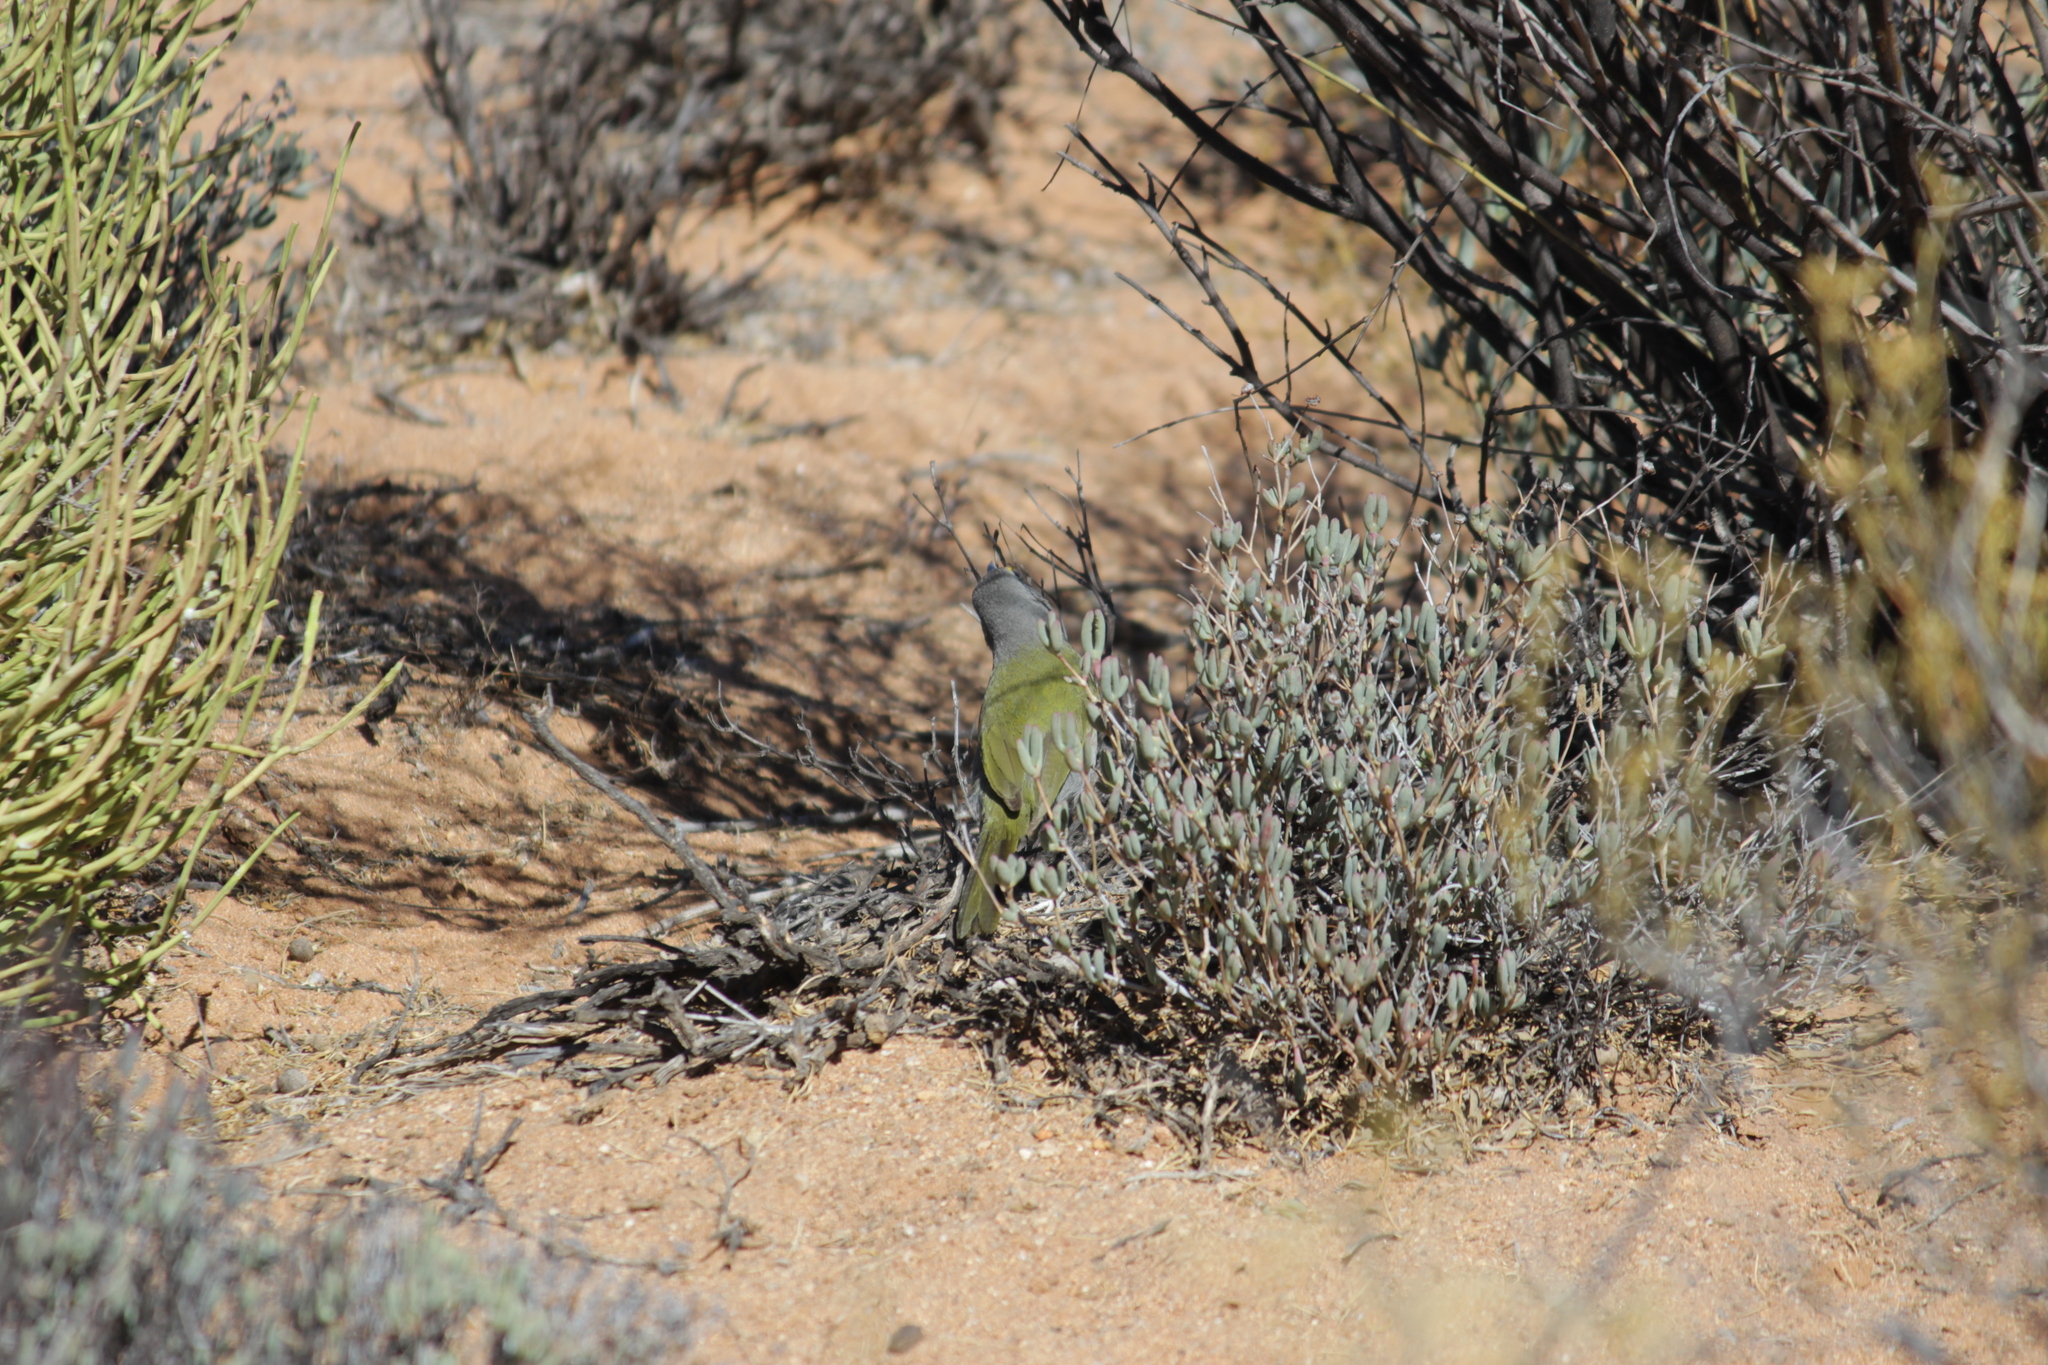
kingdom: Animalia
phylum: Chordata
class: Aves
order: Passeriformes
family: Malaconotidae
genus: Telophorus
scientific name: Telophorus zeylonus
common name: Bokmakierie
